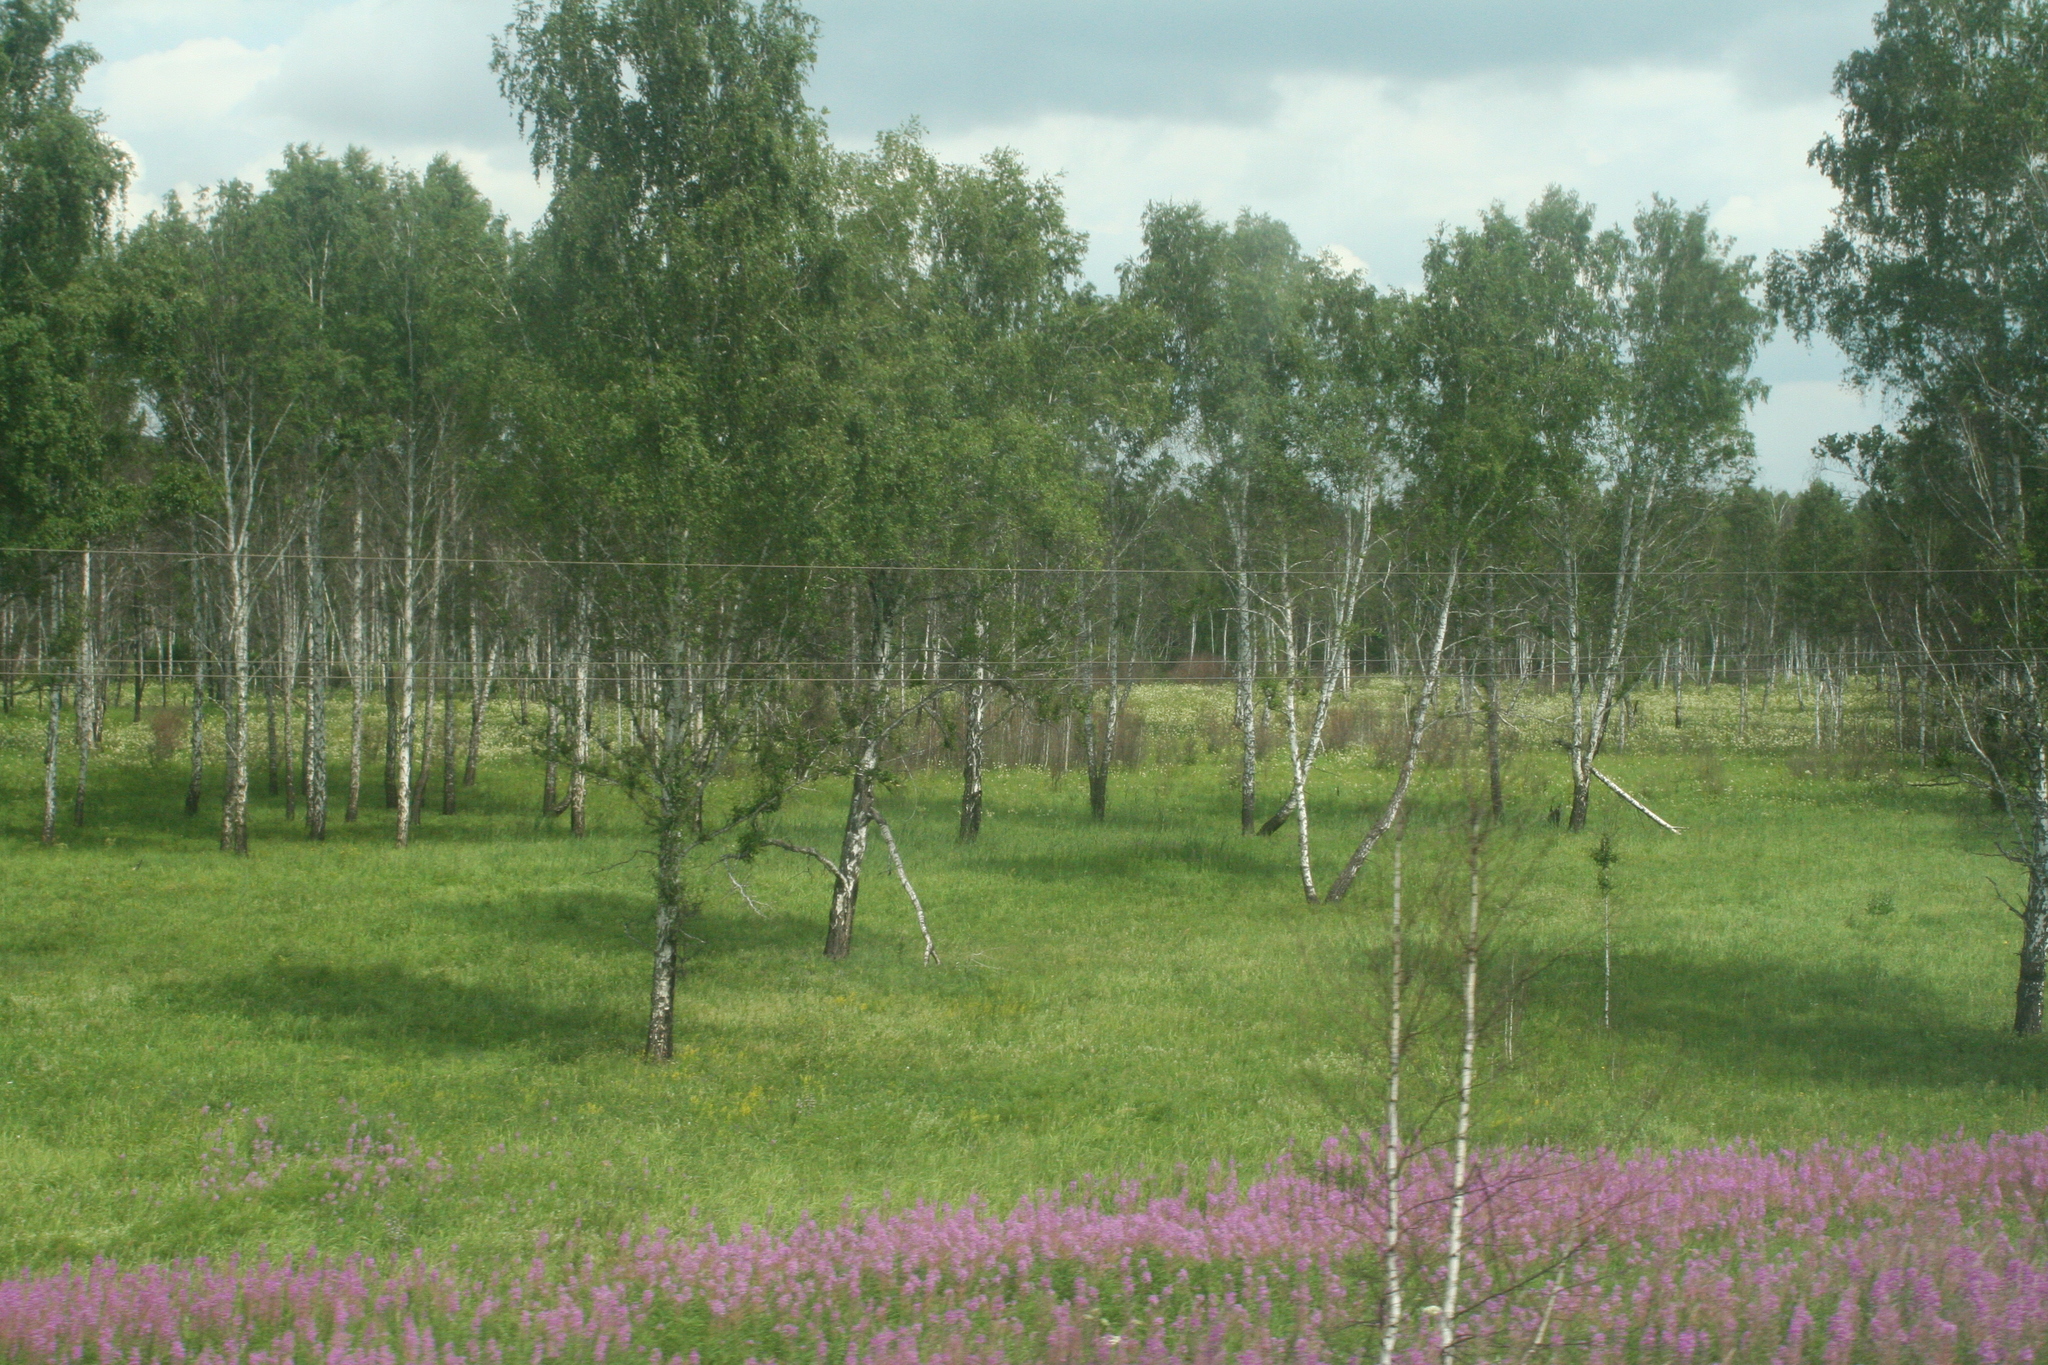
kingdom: Plantae
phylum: Tracheophyta
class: Magnoliopsida
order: Myrtales
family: Onagraceae
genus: Chamaenerion
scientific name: Chamaenerion angustifolium
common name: Fireweed
